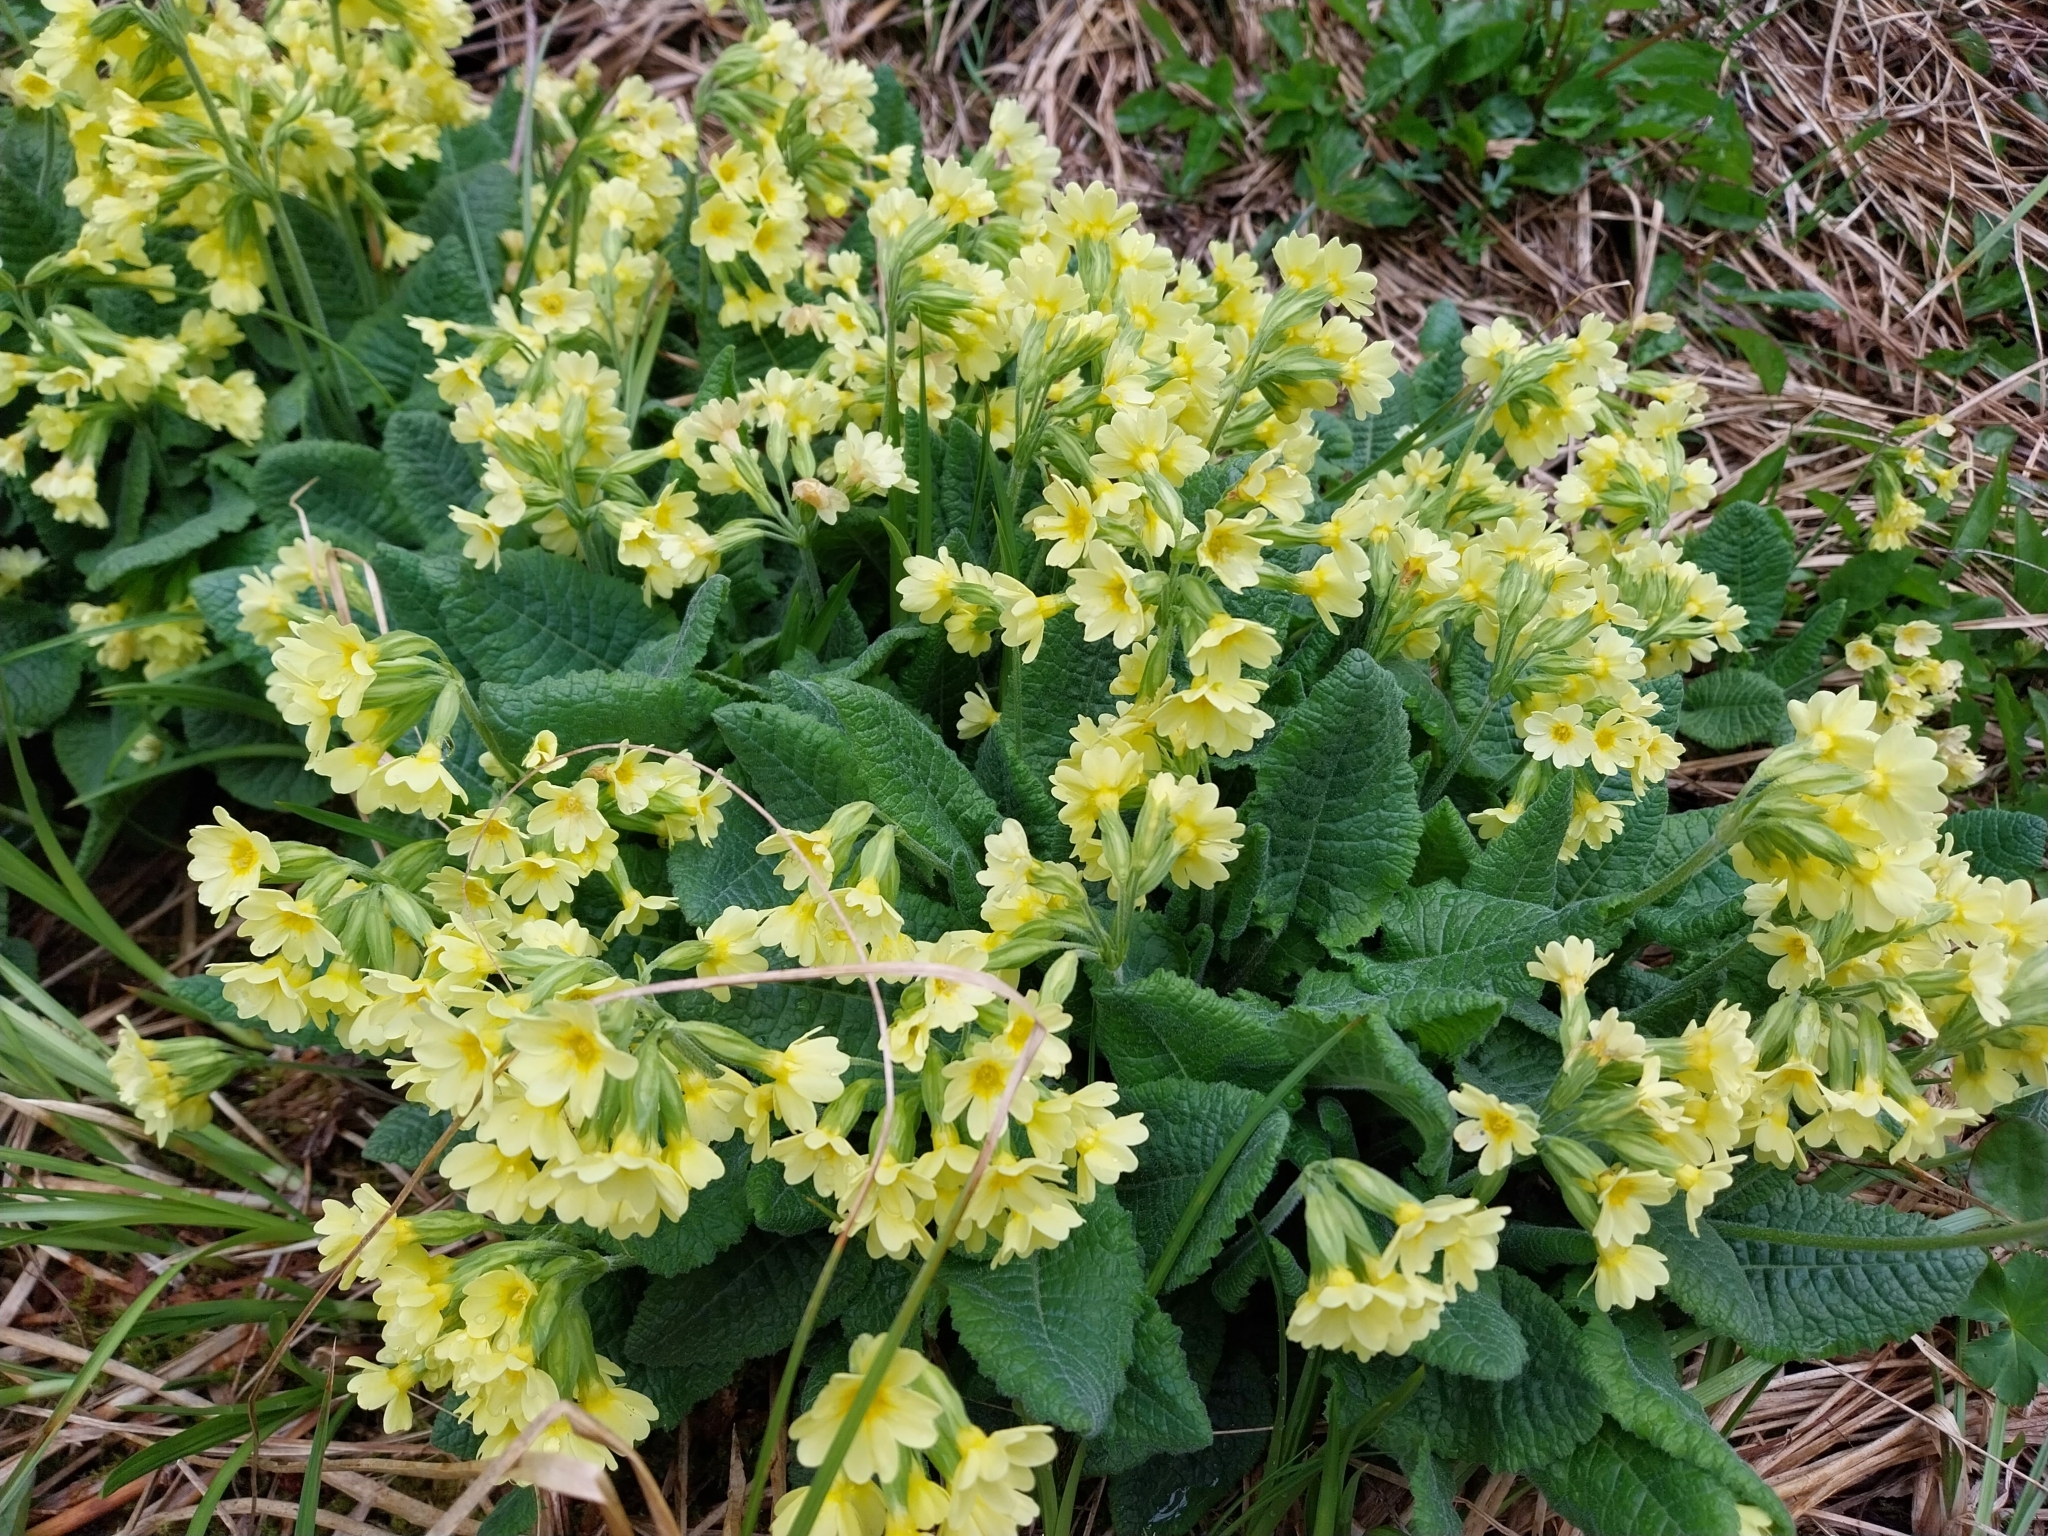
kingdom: Plantae
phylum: Tracheophyta
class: Magnoliopsida
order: Ericales
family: Primulaceae
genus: Primula
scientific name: Primula elatior
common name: Oxlip
